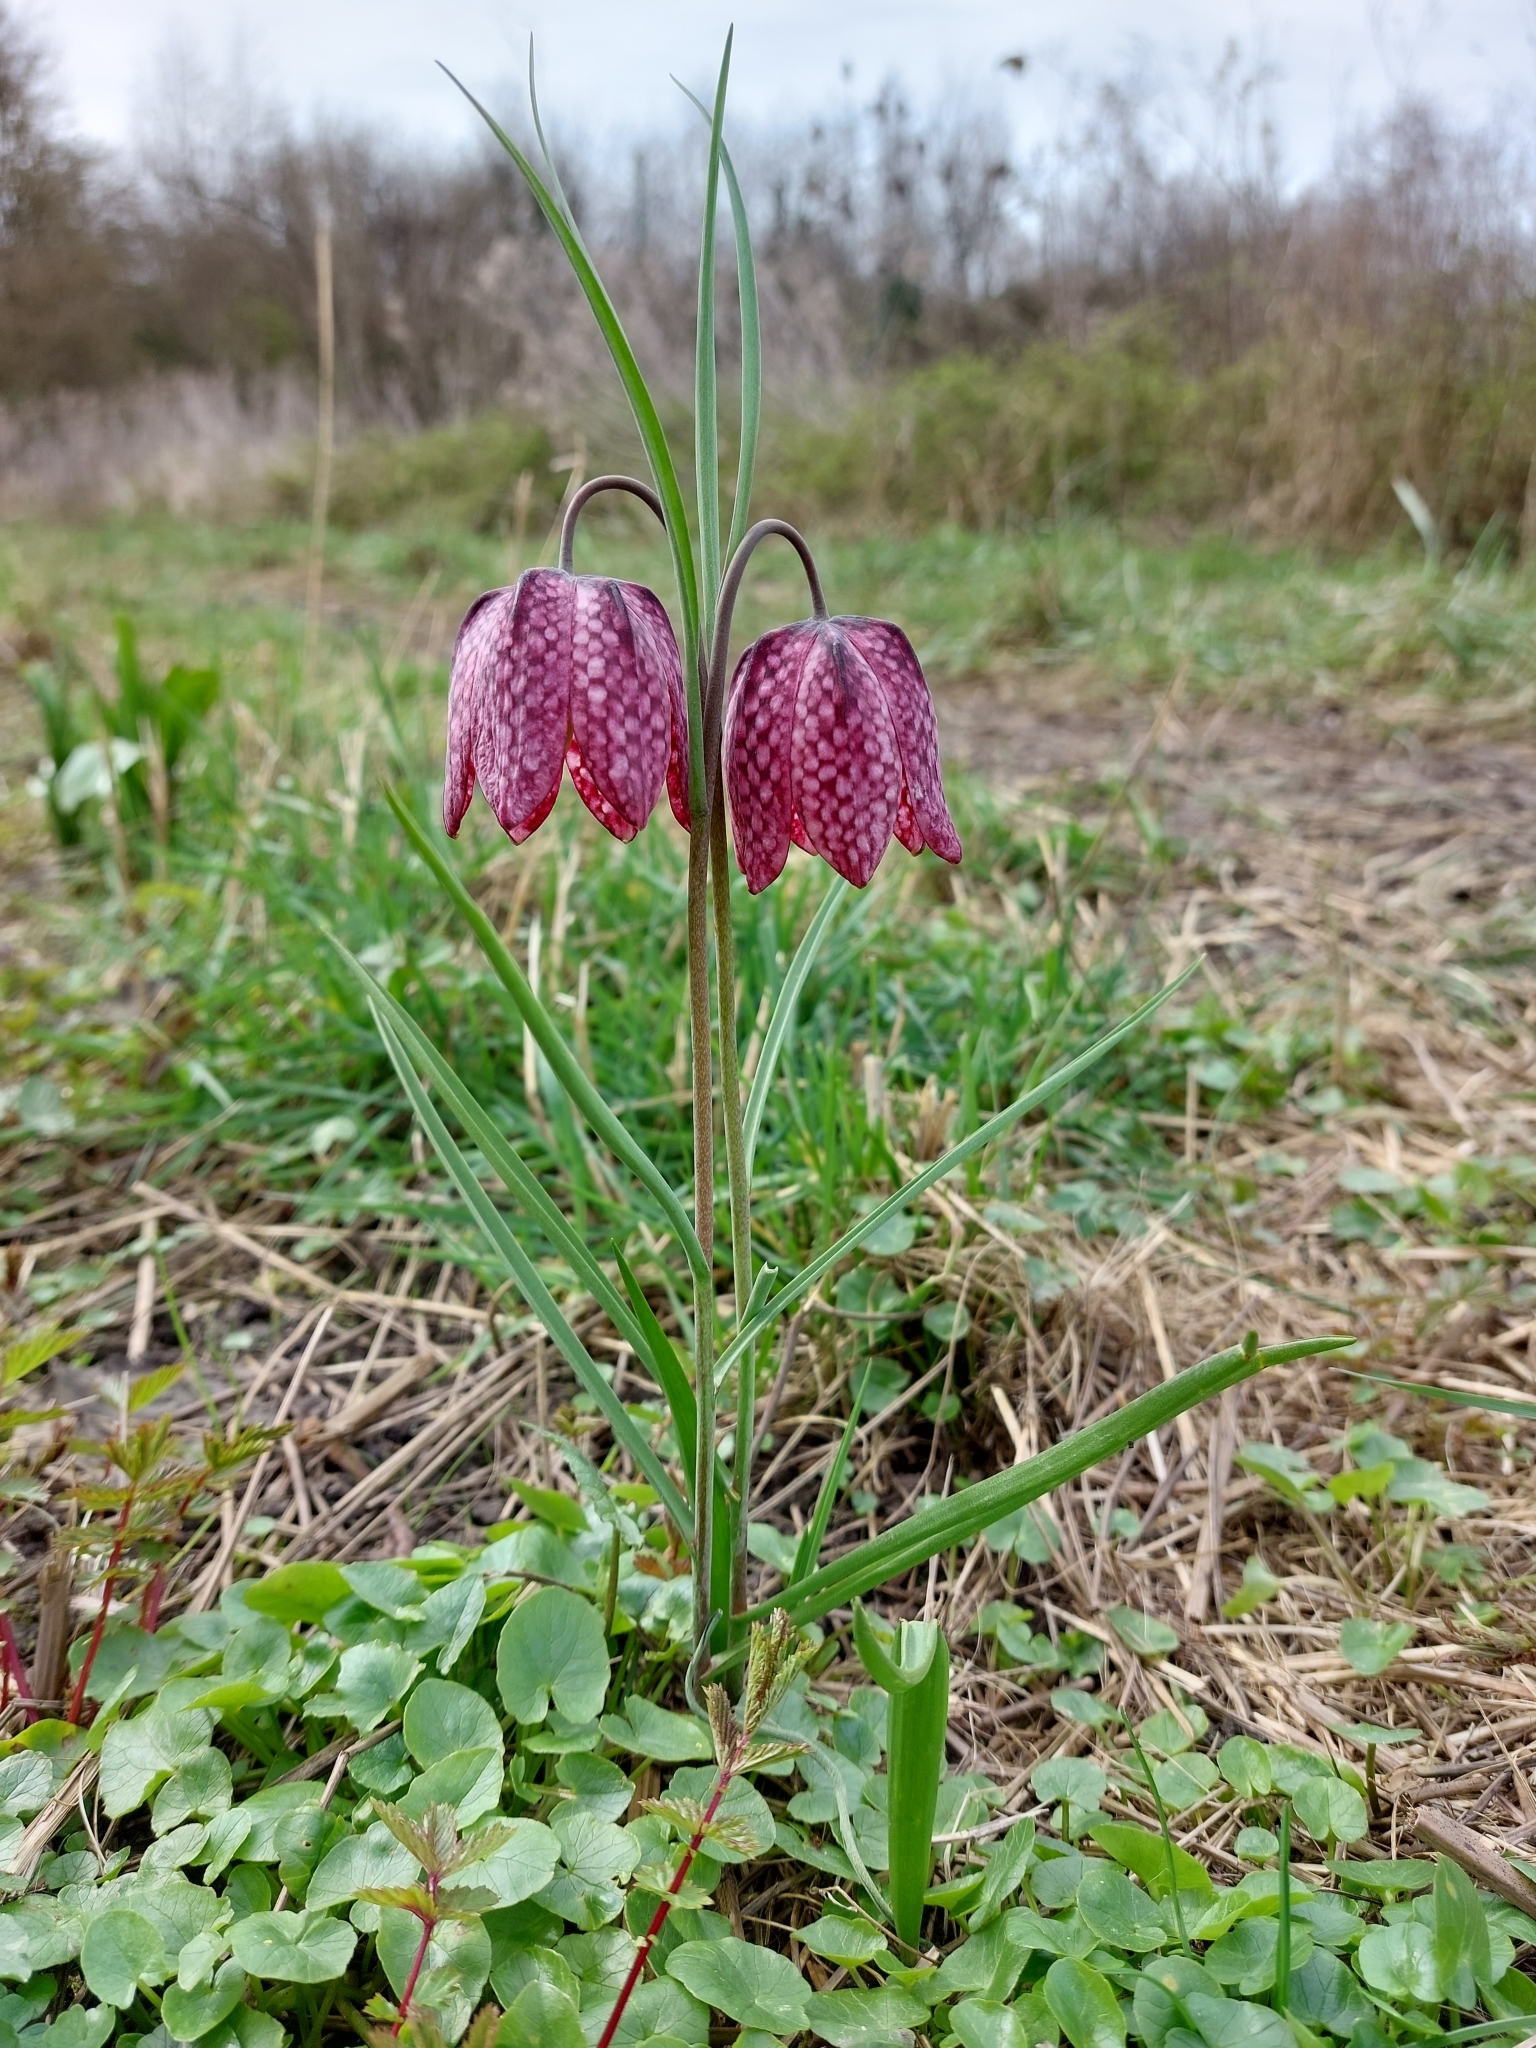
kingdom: Plantae
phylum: Tracheophyta
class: Liliopsida
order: Liliales
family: Liliaceae
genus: Fritillaria
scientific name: Fritillaria meleagris
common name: Fritillary
